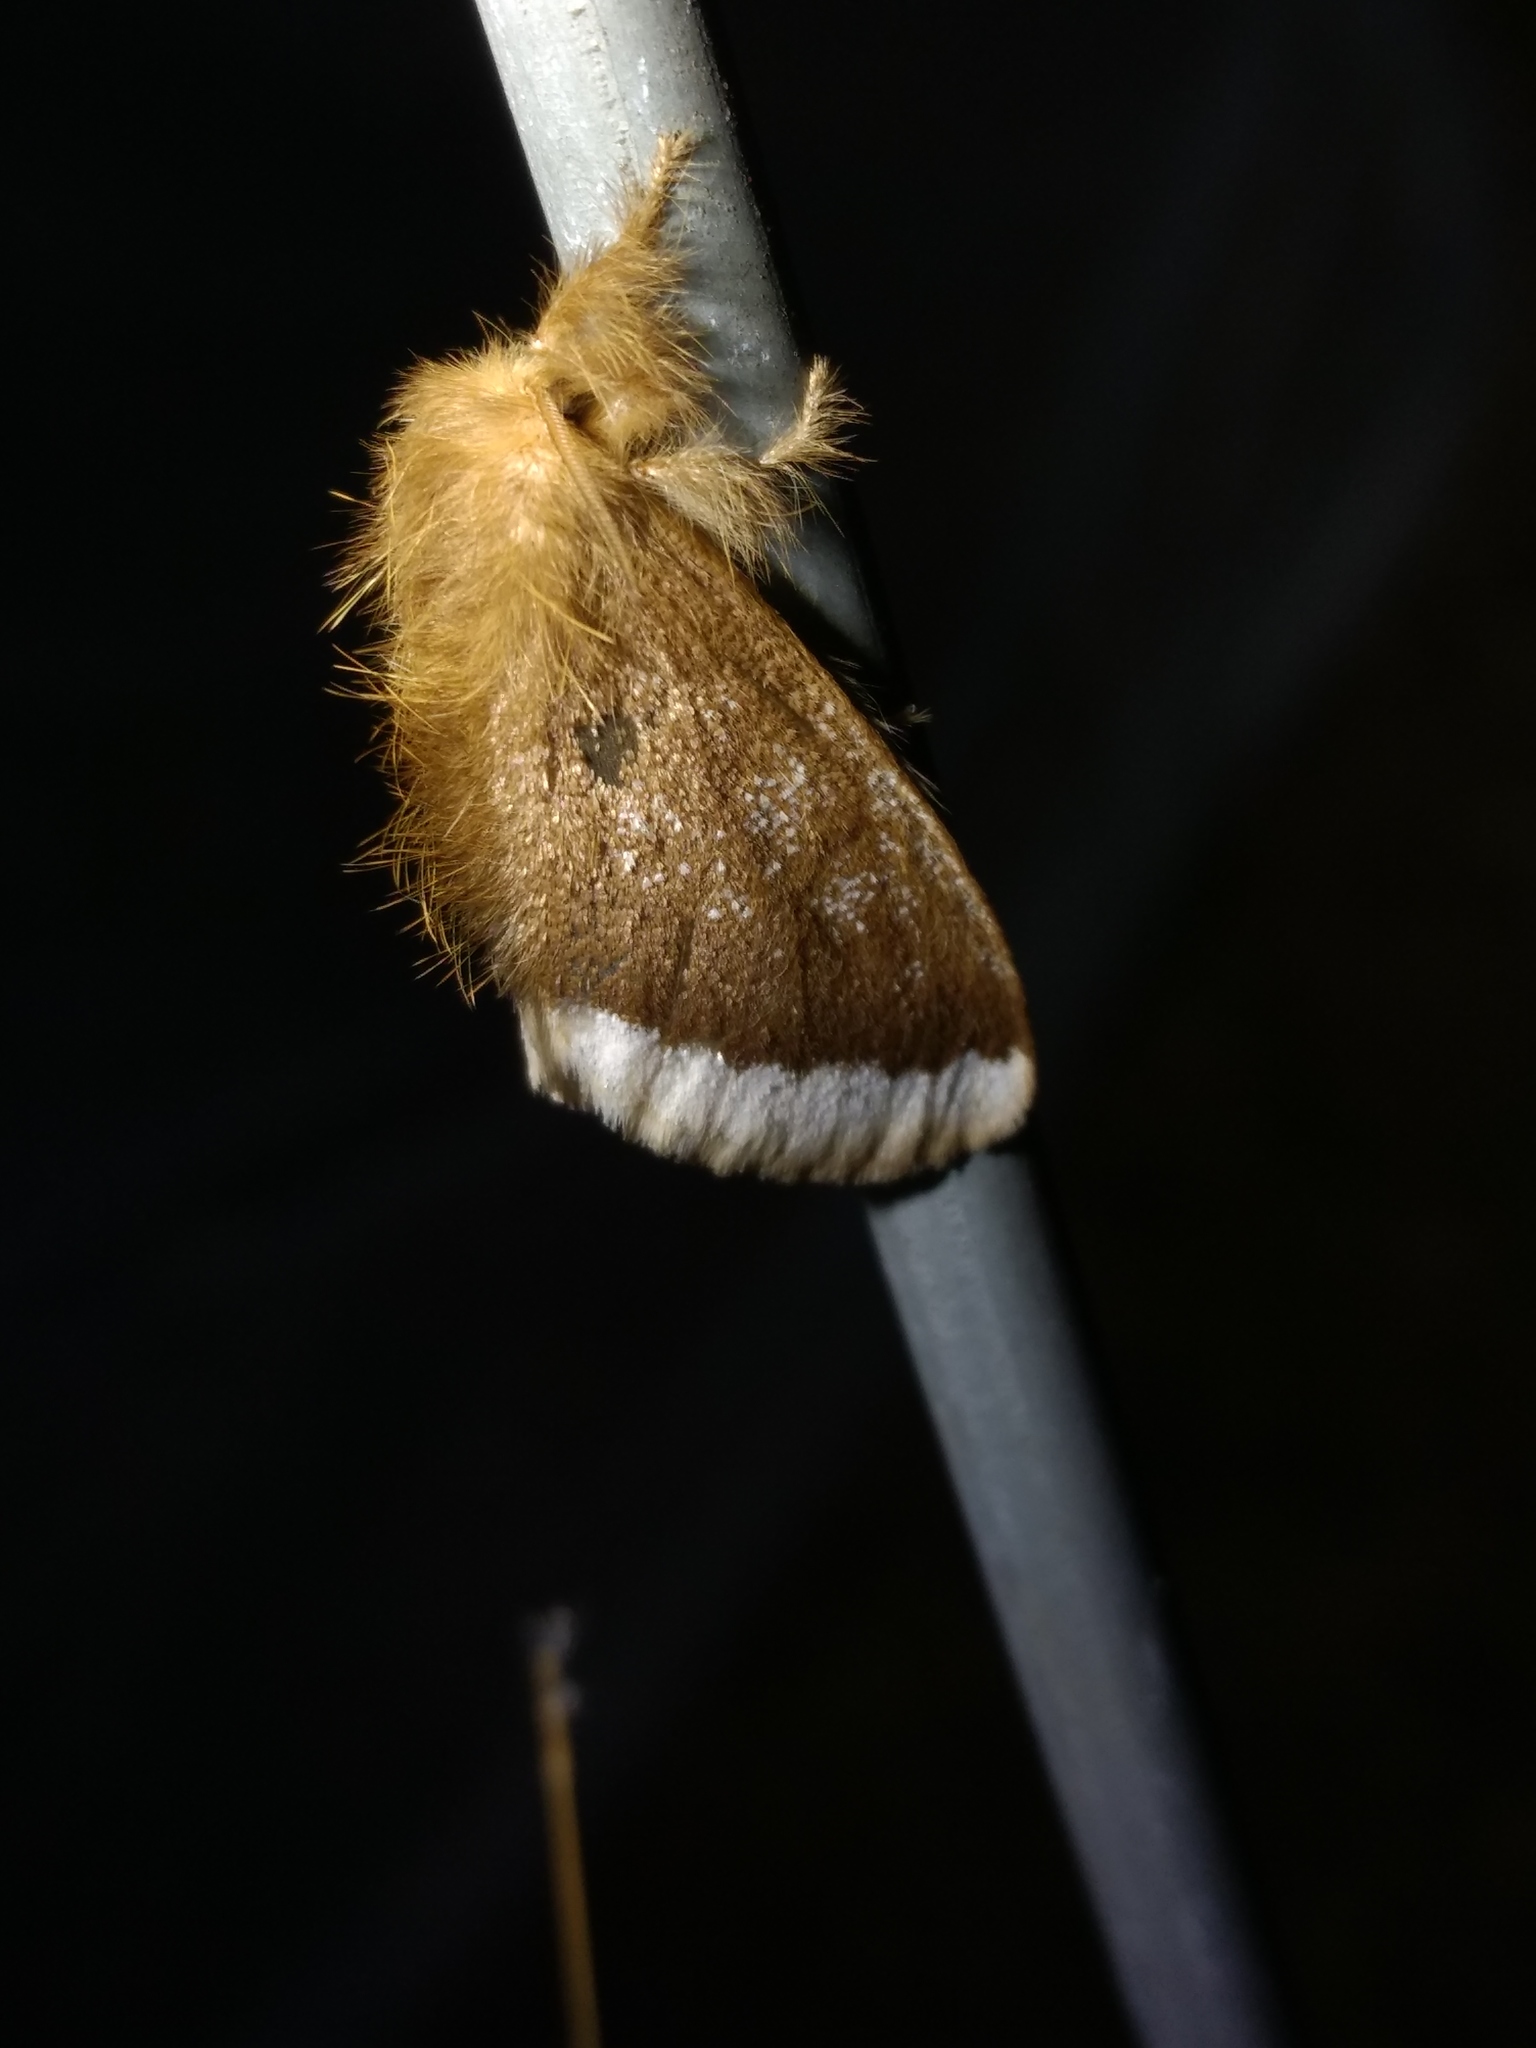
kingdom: Animalia
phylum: Arthropoda
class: Insecta
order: Lepidoptera
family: Erebidae
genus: Euproctis
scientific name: Euproctis
